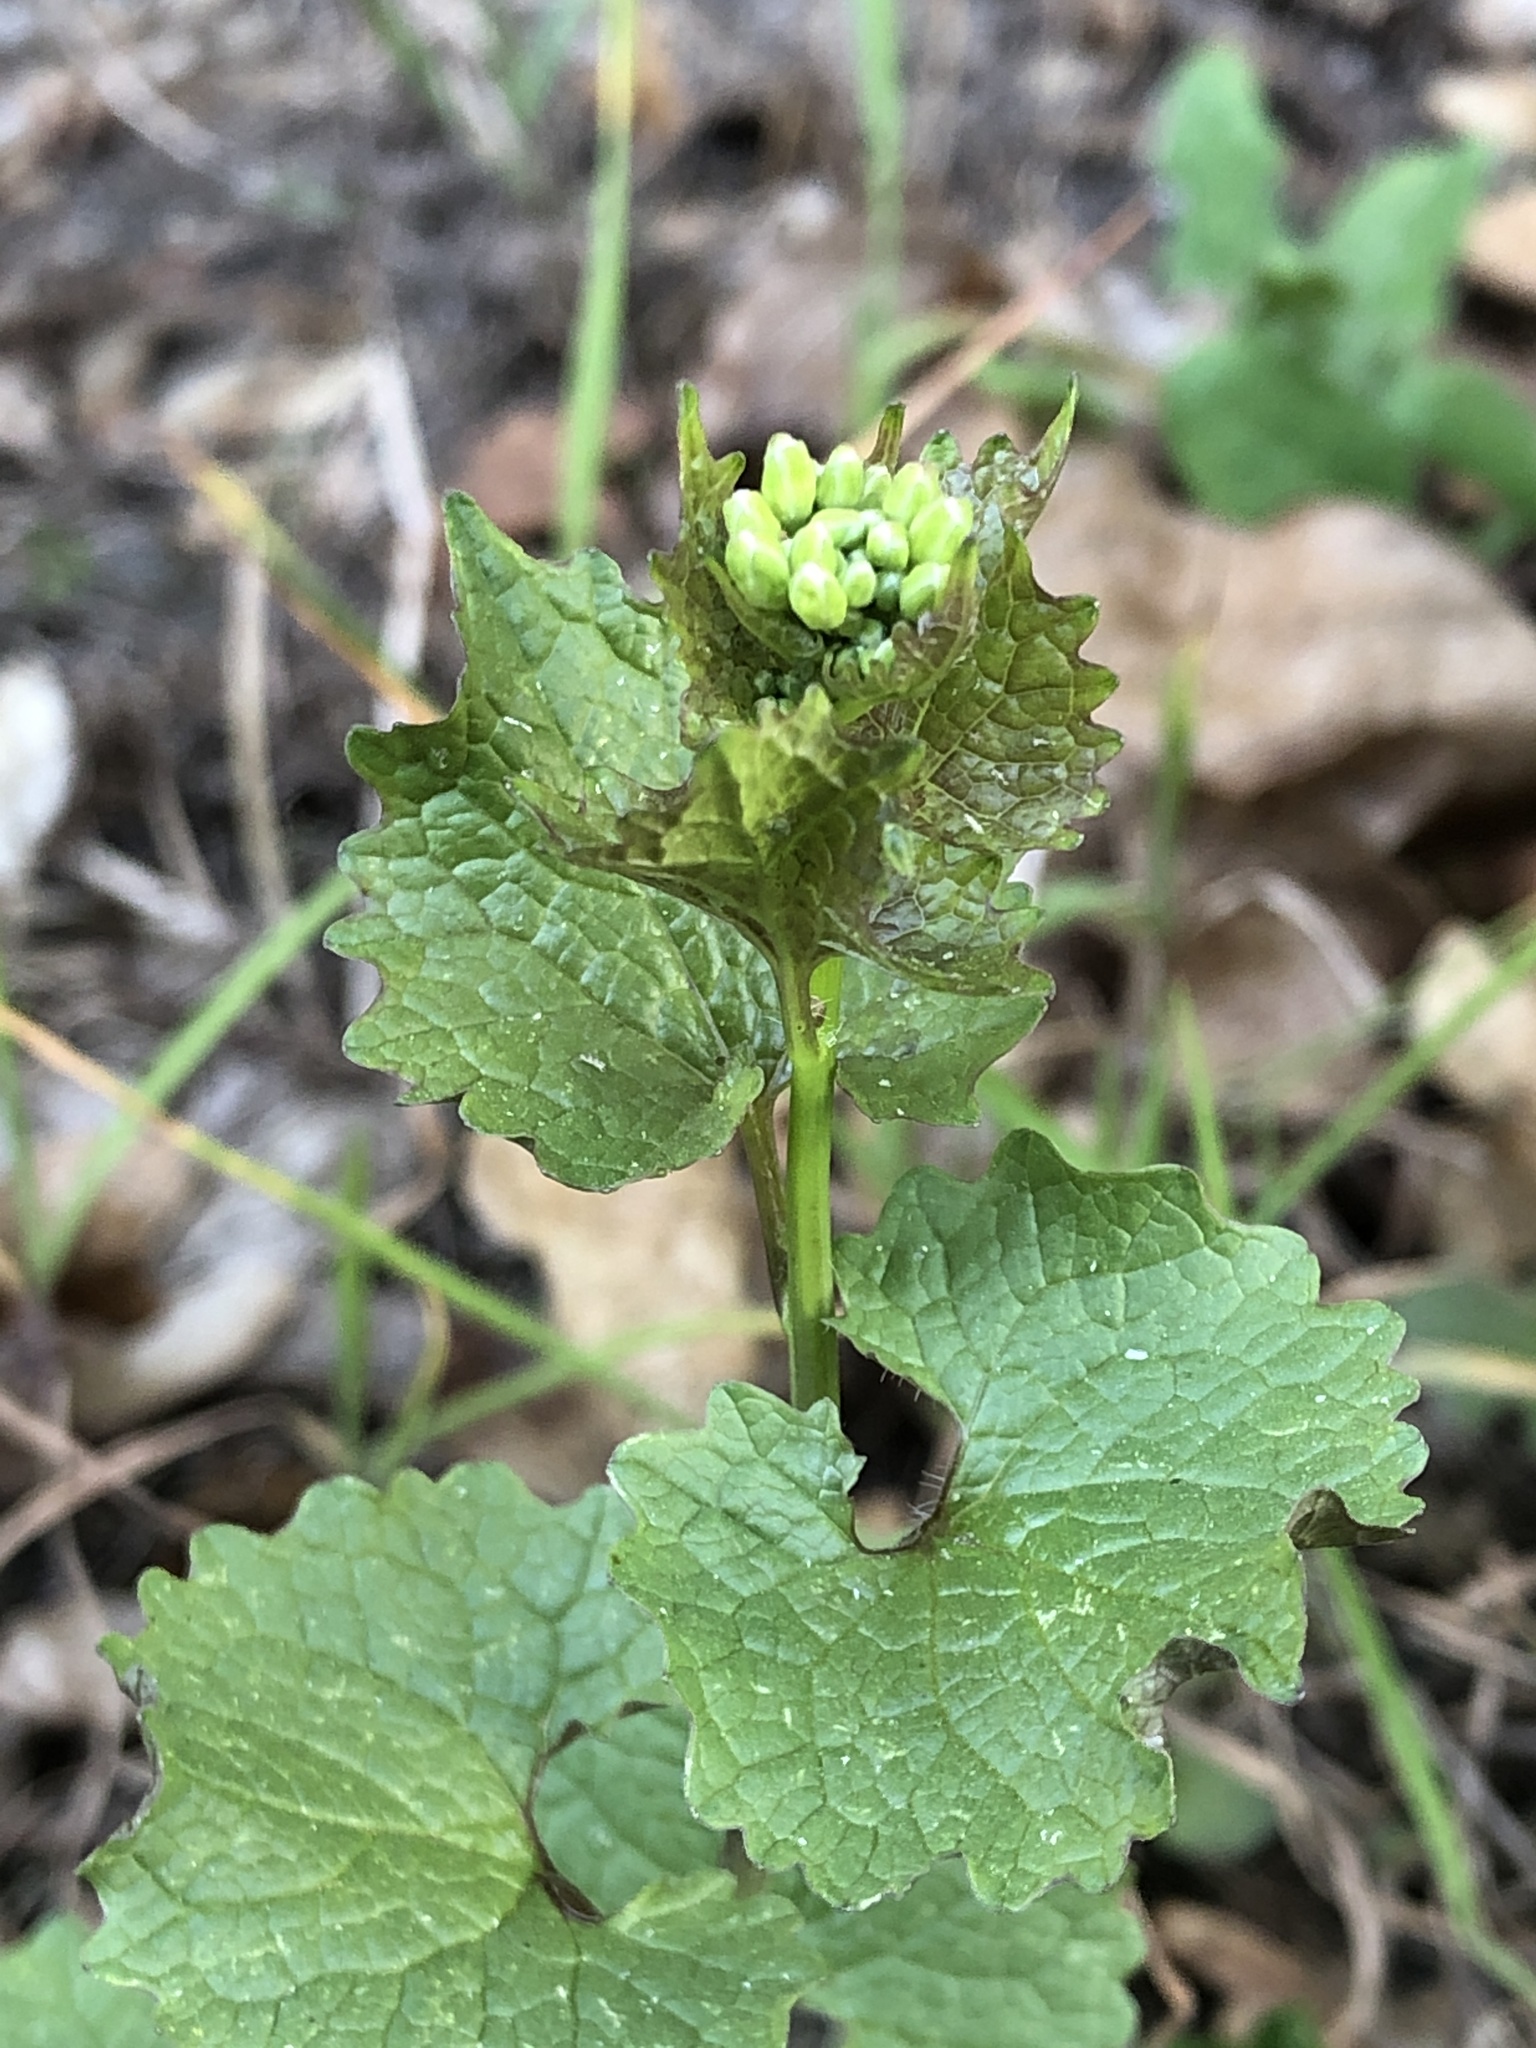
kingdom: Plantae
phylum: Tracheophyta
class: Magnoliopsida
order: Brassicales
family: Brassicaceae
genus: Alliaria
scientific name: Alliaria petiolata
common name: Garlic mustard
